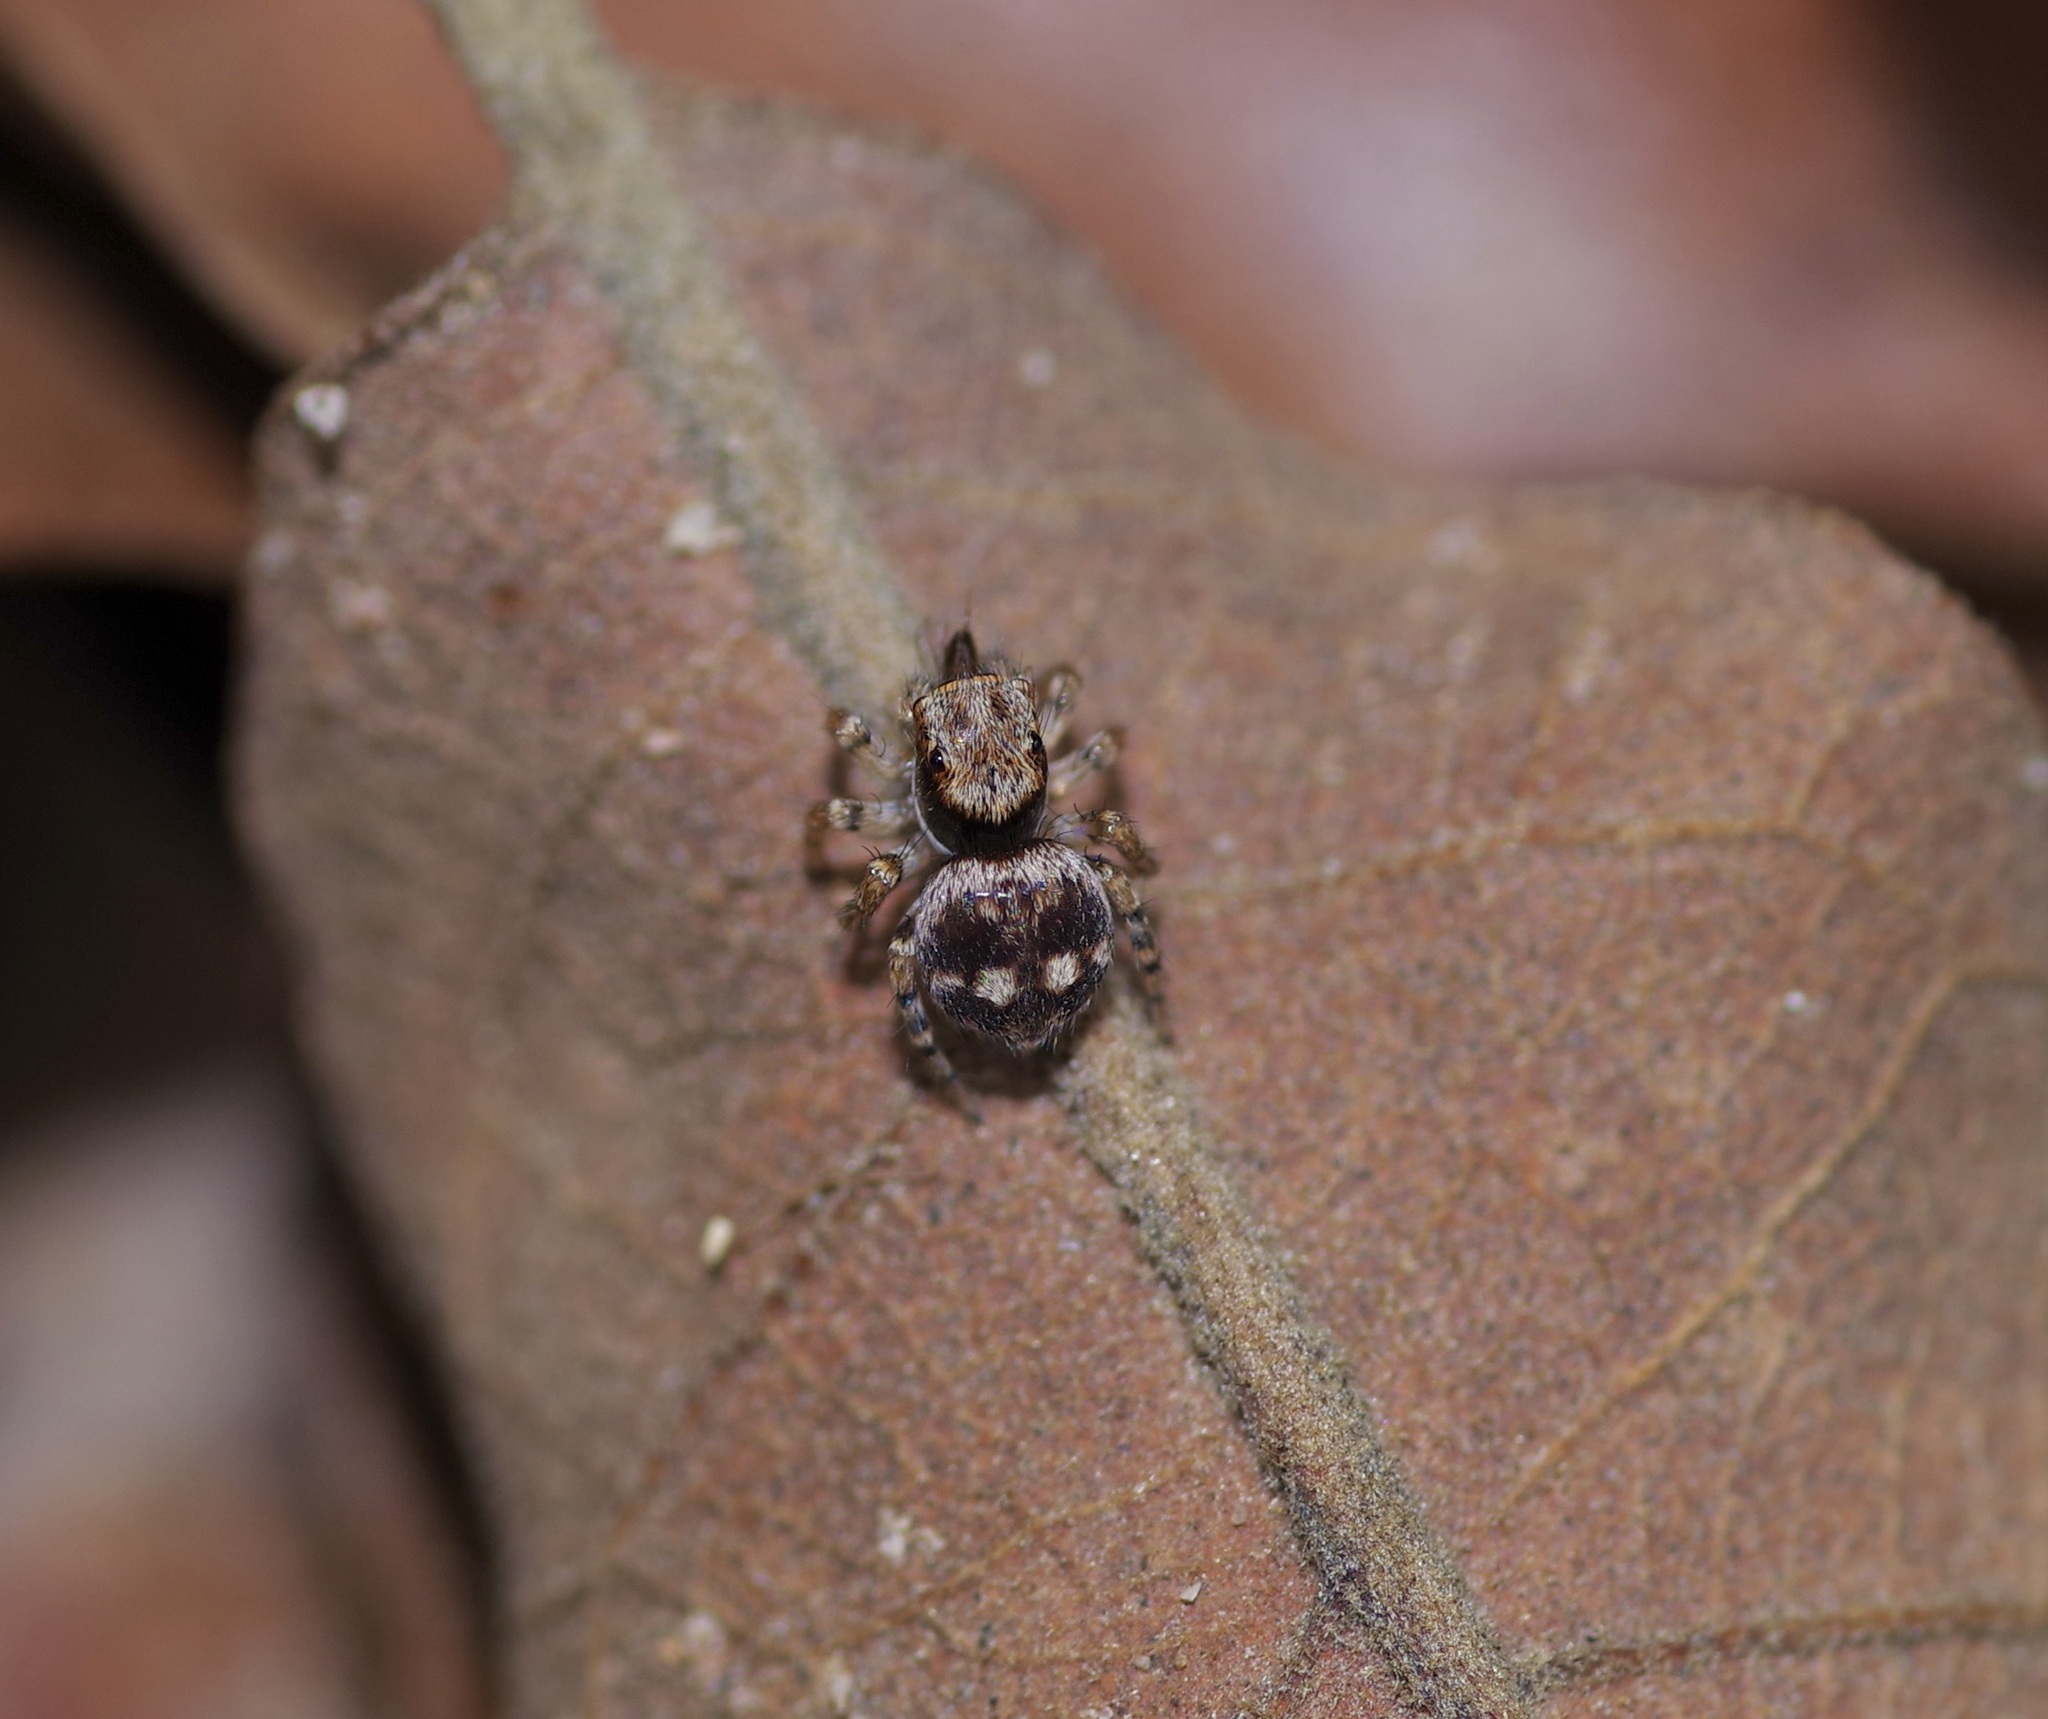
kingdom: Animalia
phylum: Arthropoda
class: Arachnida
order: Araneae
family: Salticidae
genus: Naphrys
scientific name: Naphrys acerba
